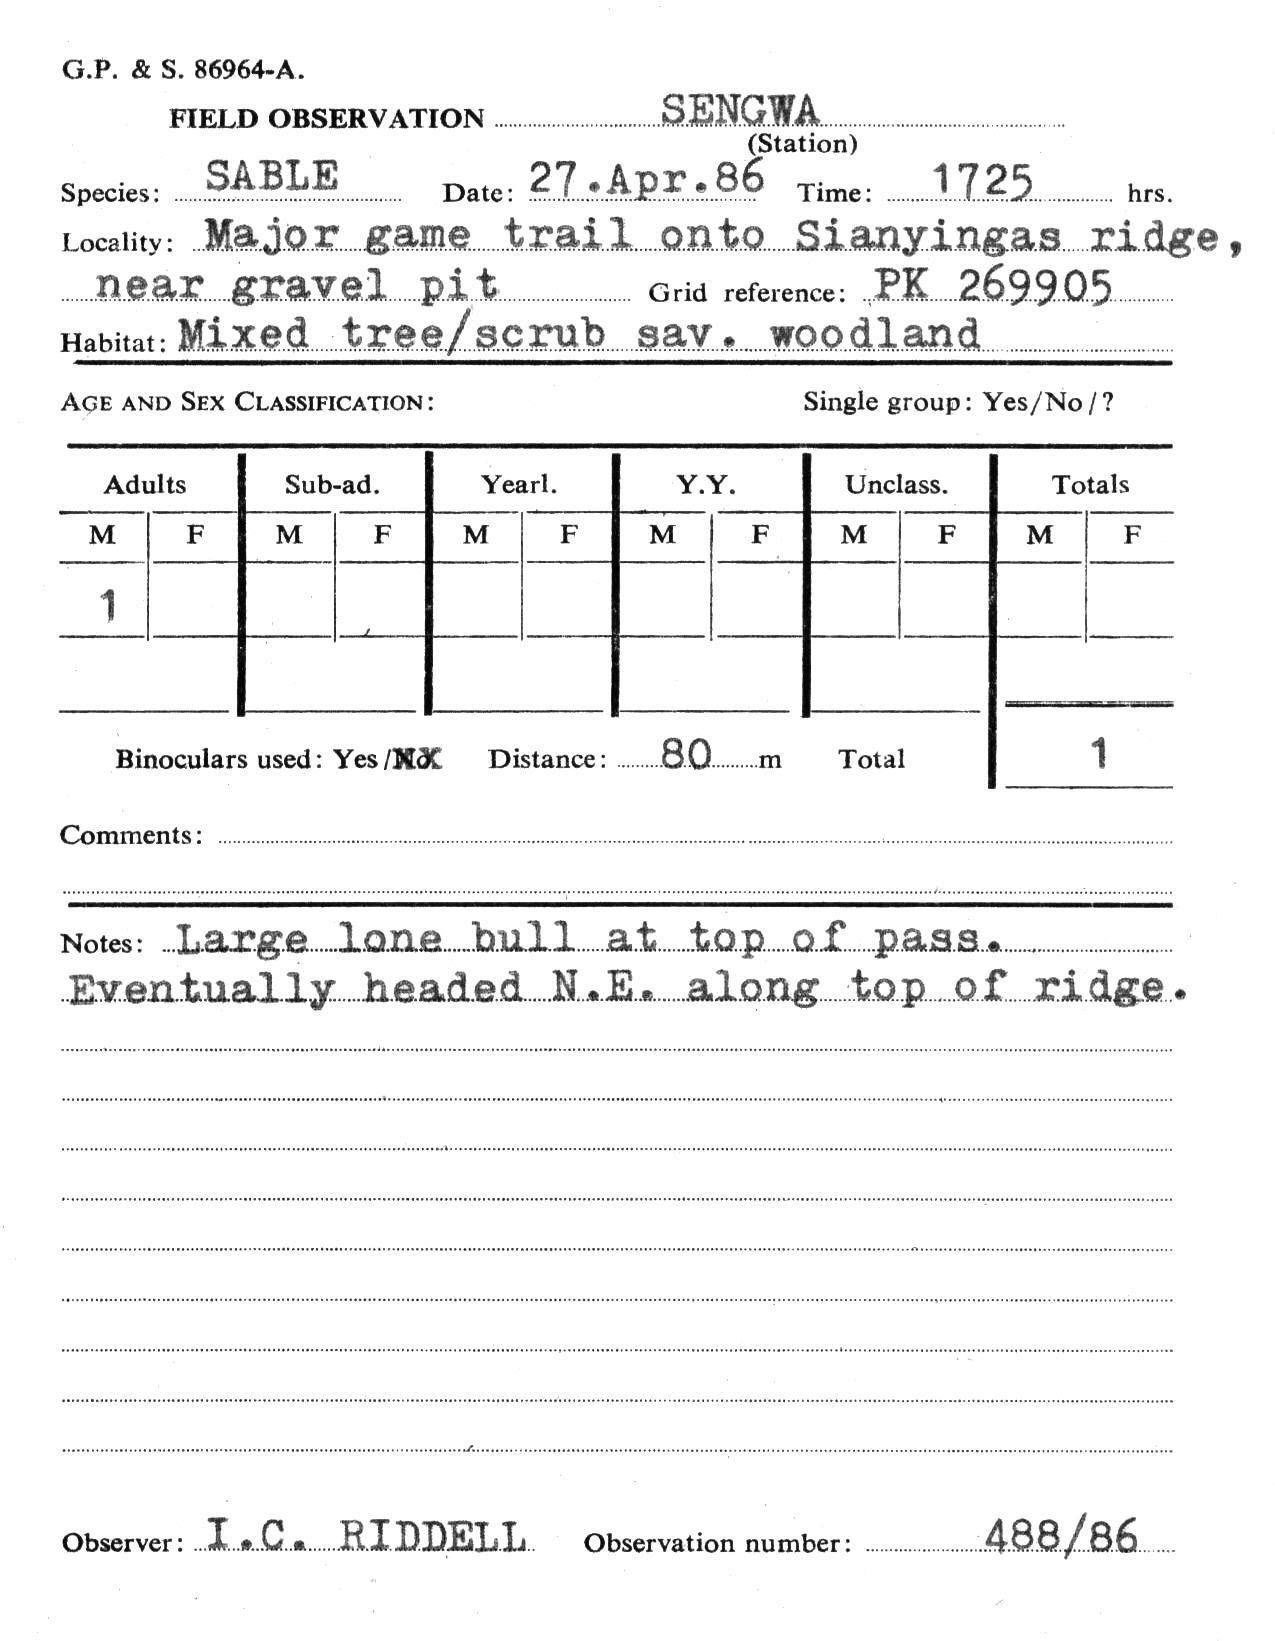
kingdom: Animalia
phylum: Chordata
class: Mammalia
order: Artiodactyla
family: Bovidae
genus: Hippotragus
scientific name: Hippotragus niger
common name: Sable antelope
